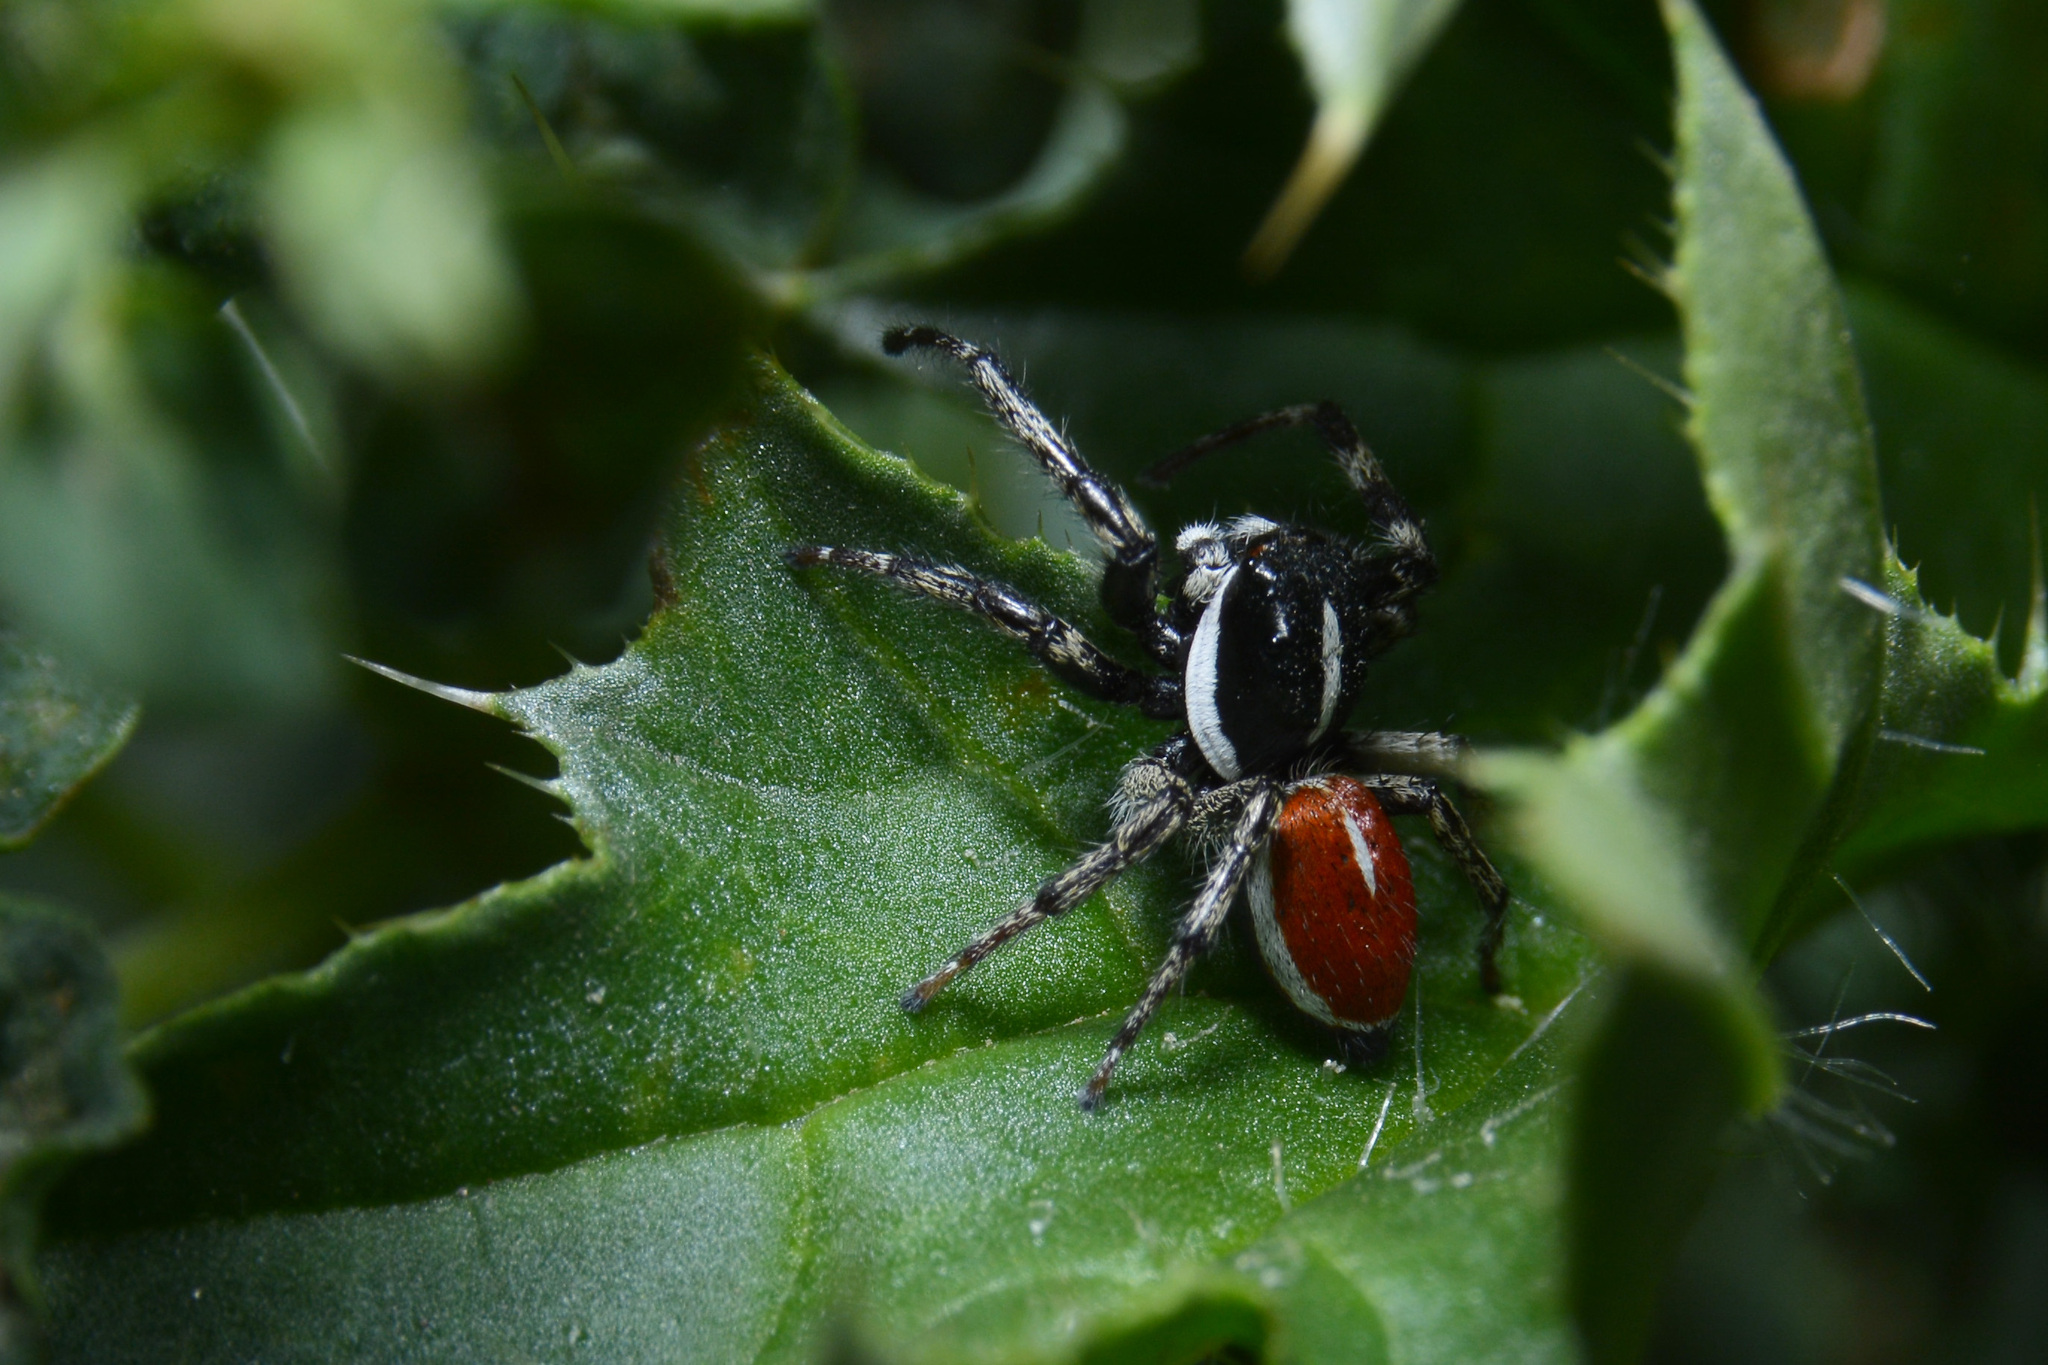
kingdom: Animalia
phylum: Arthropoda
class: Arachnida
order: Araneae
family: Salticidae
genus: Phiale
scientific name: Phiale roburifoliata
